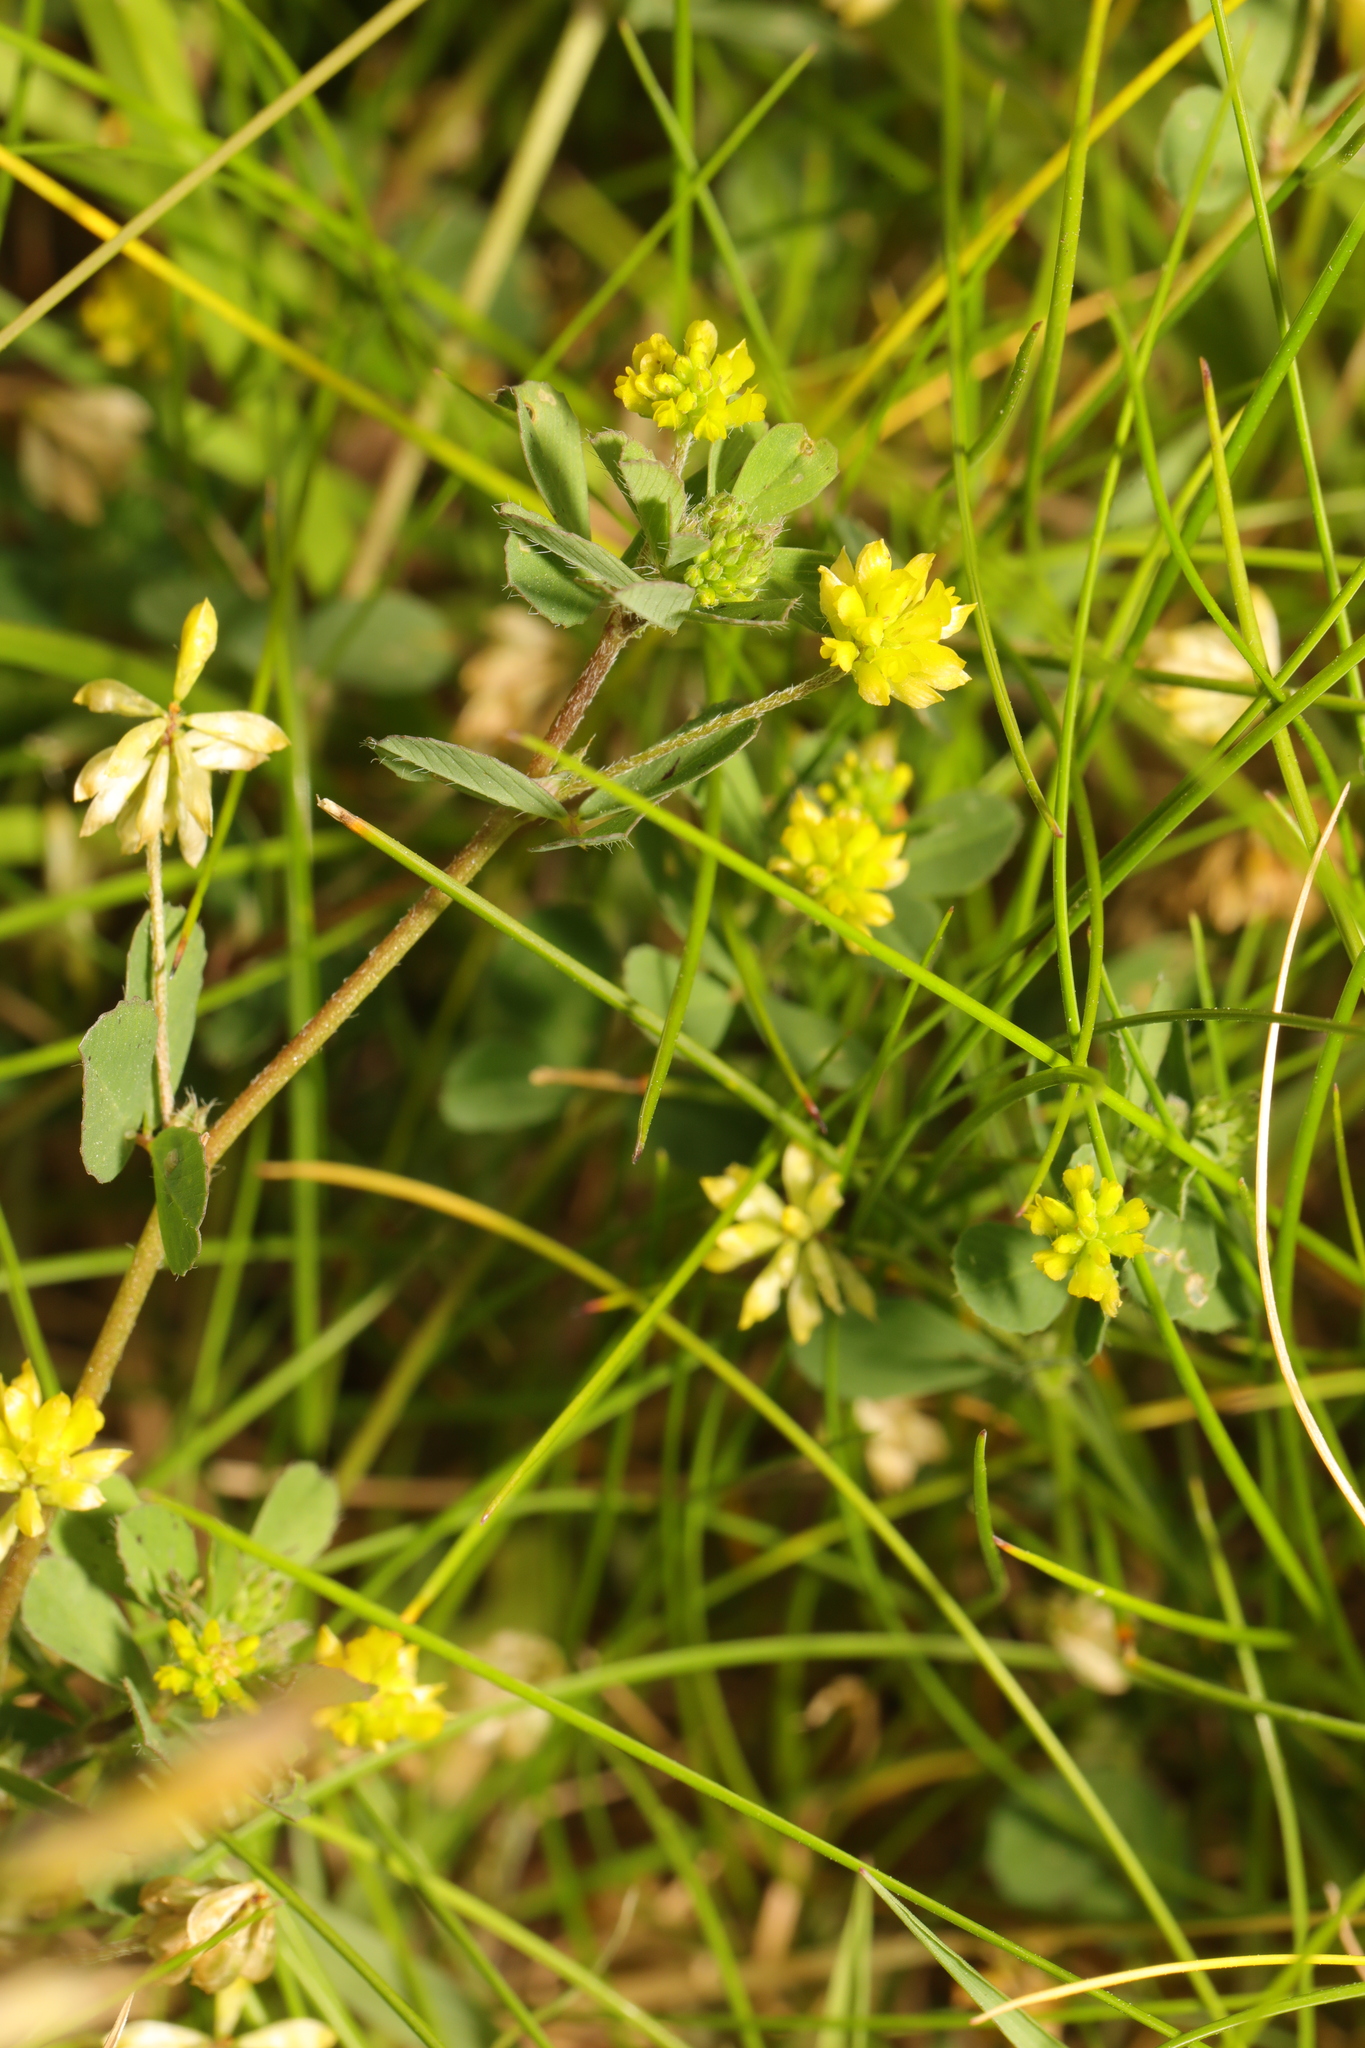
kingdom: Plantae
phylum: Tracheophyta
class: Magnoliopsida
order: Fabales
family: Fabaceae
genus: Trifolium
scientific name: Trifolium dubium
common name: Suckling clover
